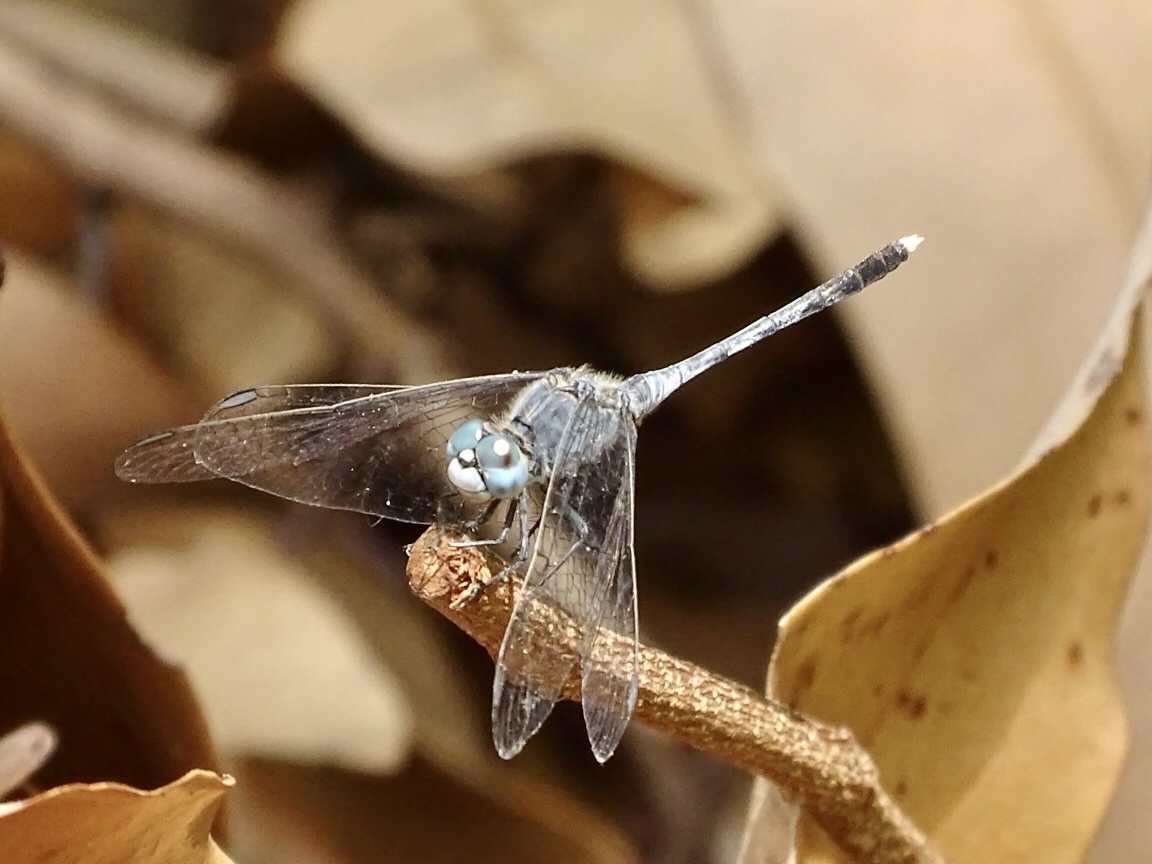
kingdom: Animalia
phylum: Arthropoda
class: Insecta
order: Odonata
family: Libellulidae
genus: Diplacodes
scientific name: Diplacodes trivialis
